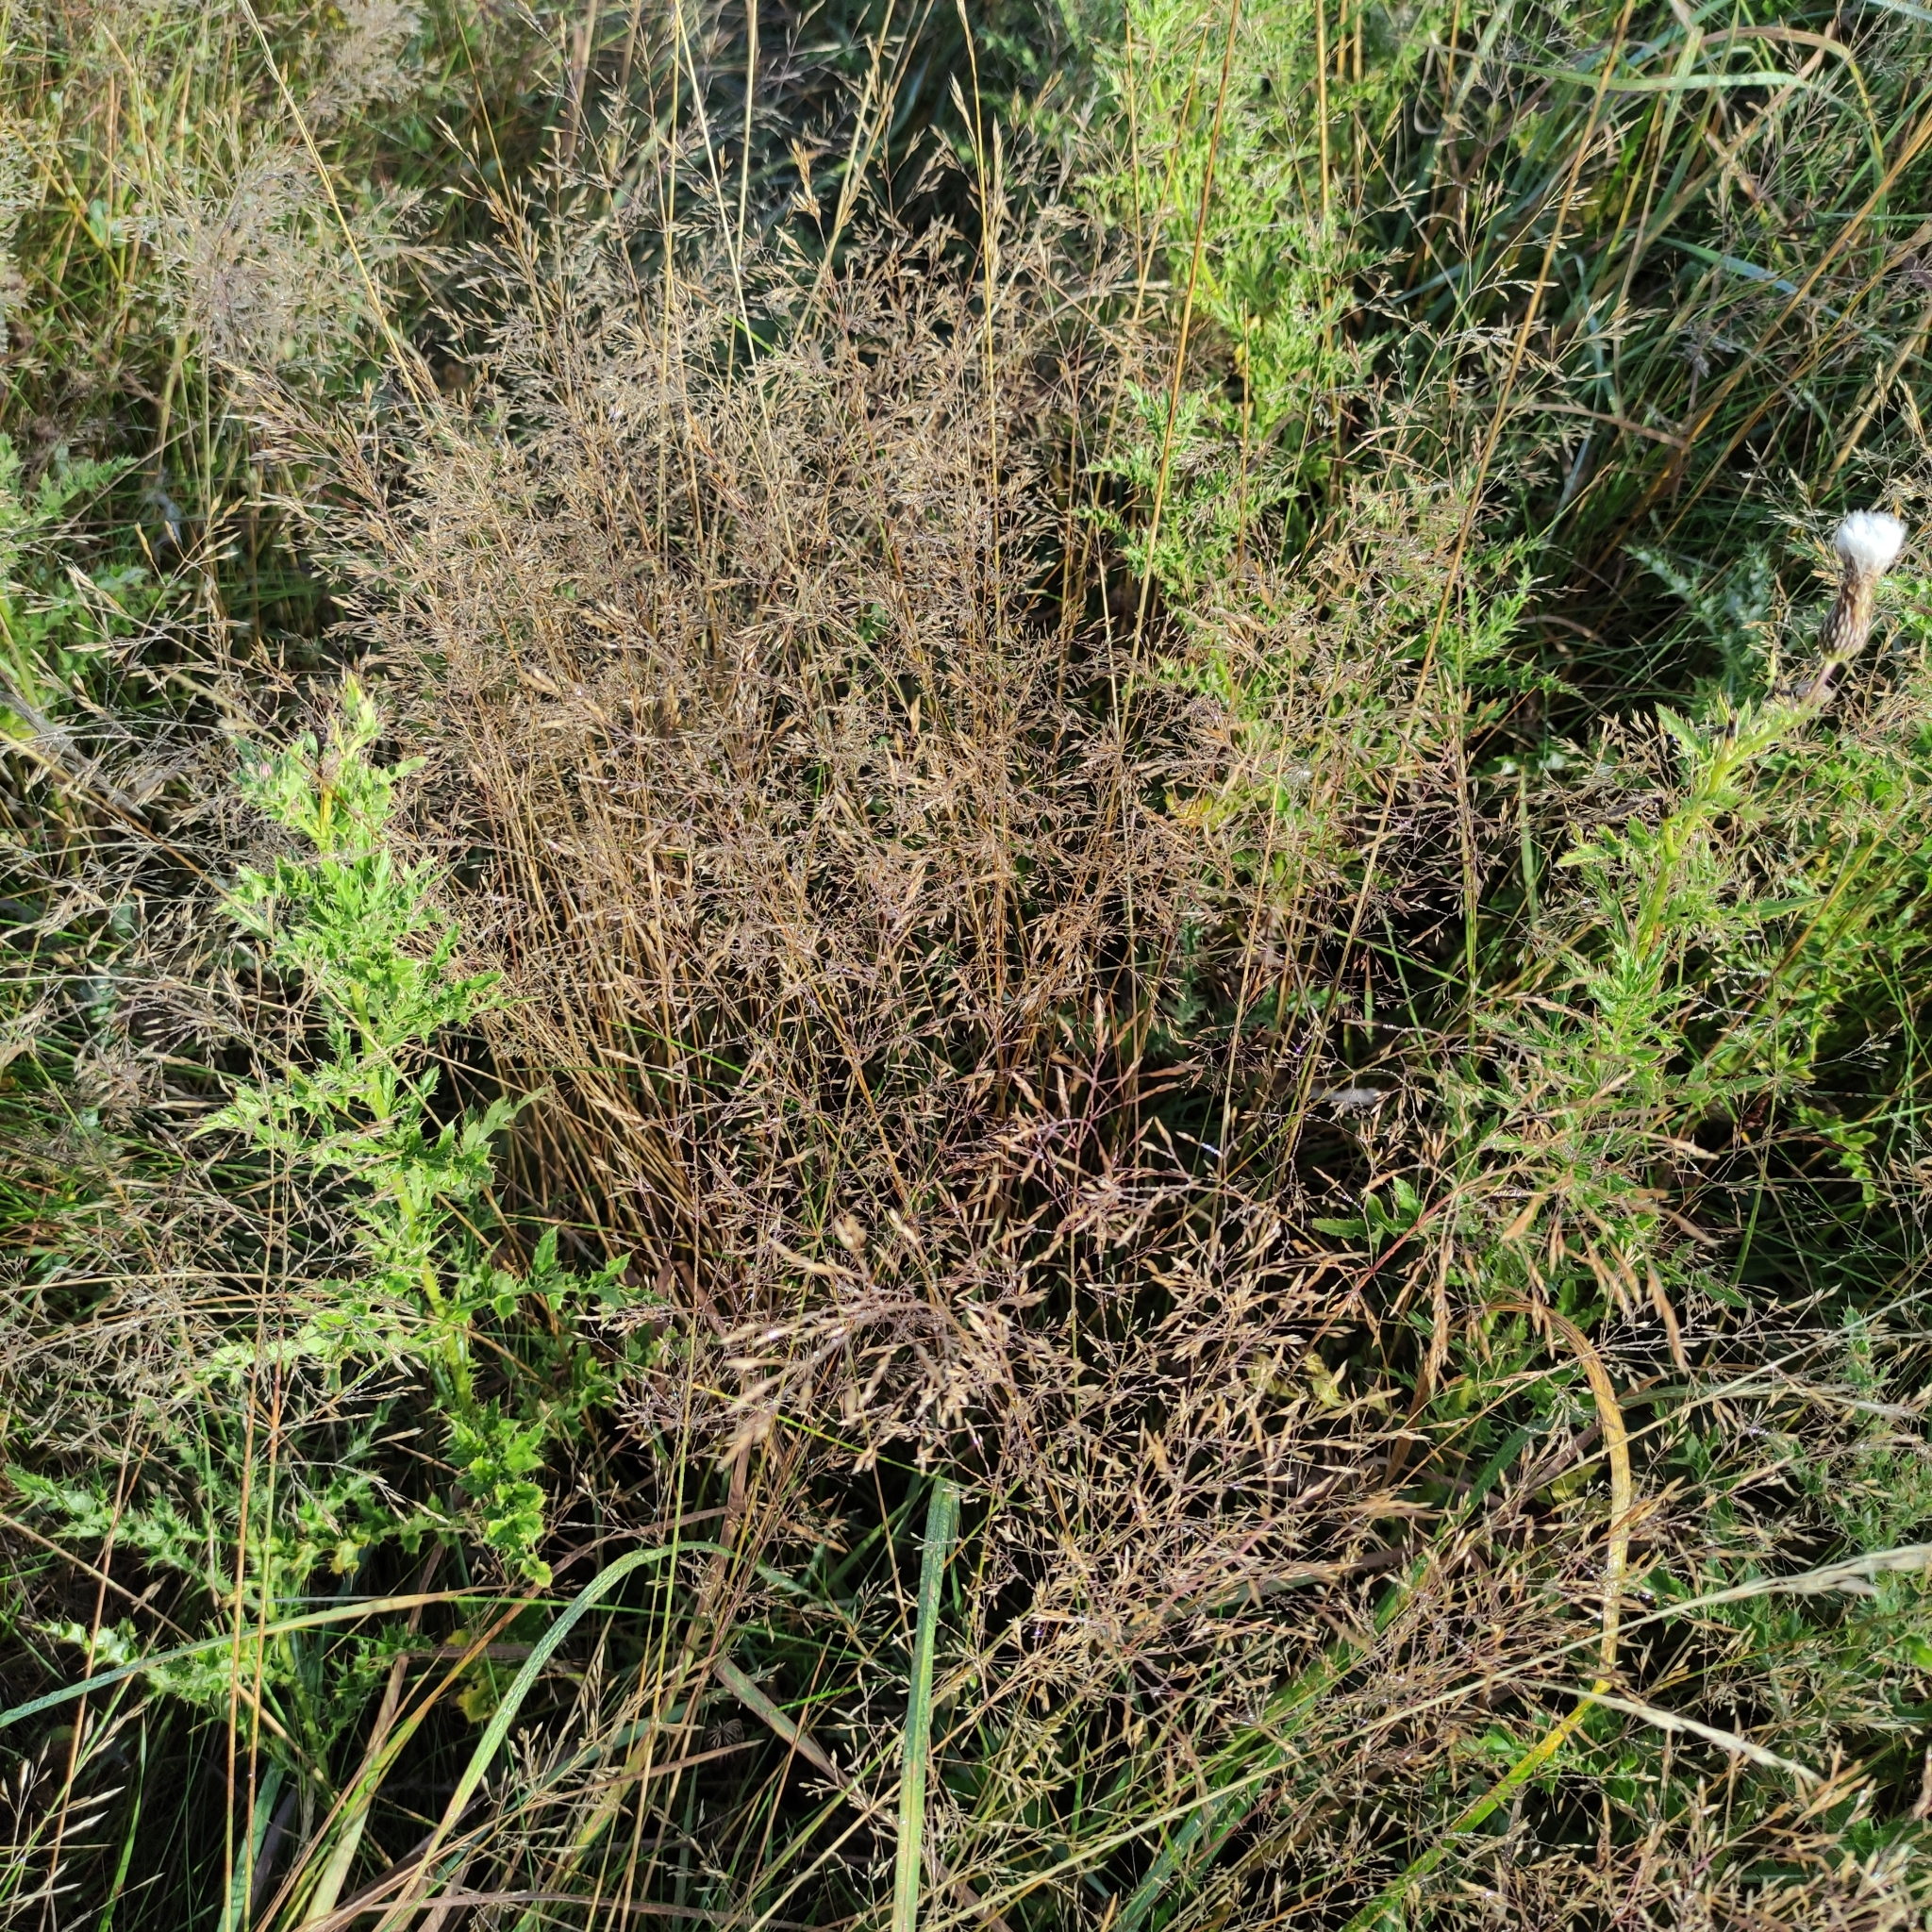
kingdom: Plantae
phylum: Tracheophyta
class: Liliopsida
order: Poales
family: Poaceae
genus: Agrostis
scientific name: Agrostis capillaris
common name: Colonial bentgrass
